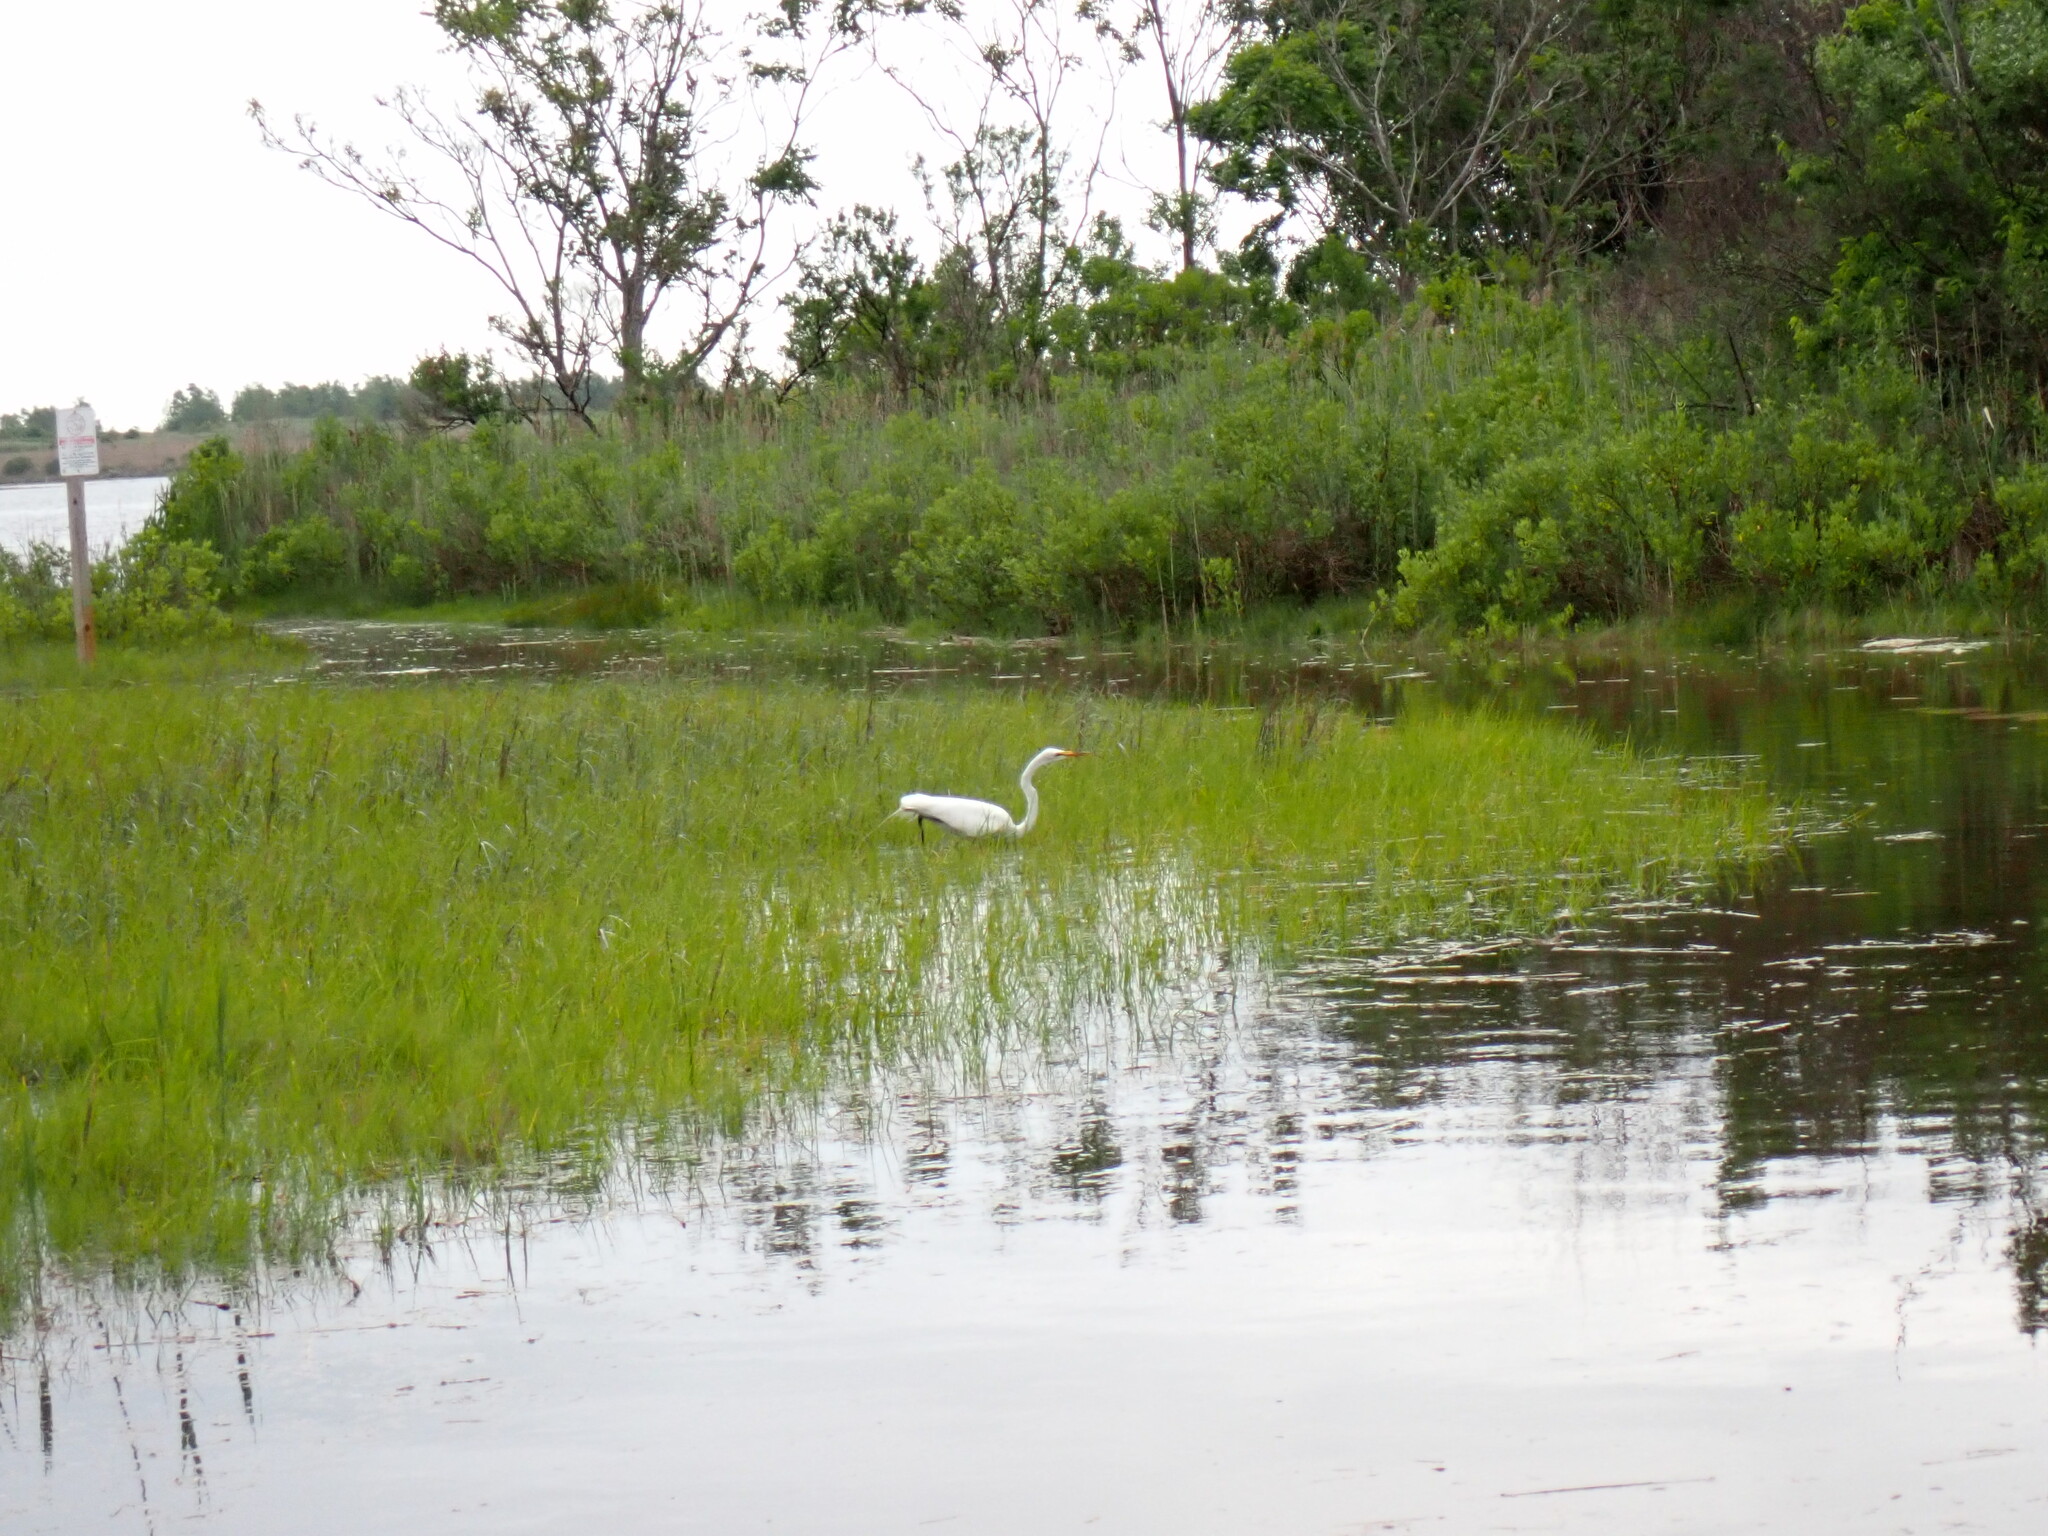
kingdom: Animalia
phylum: Chordata
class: Aves
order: Pelecaniformes
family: Ardeidae
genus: Ardea
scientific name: Ardea alba
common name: Great egret
